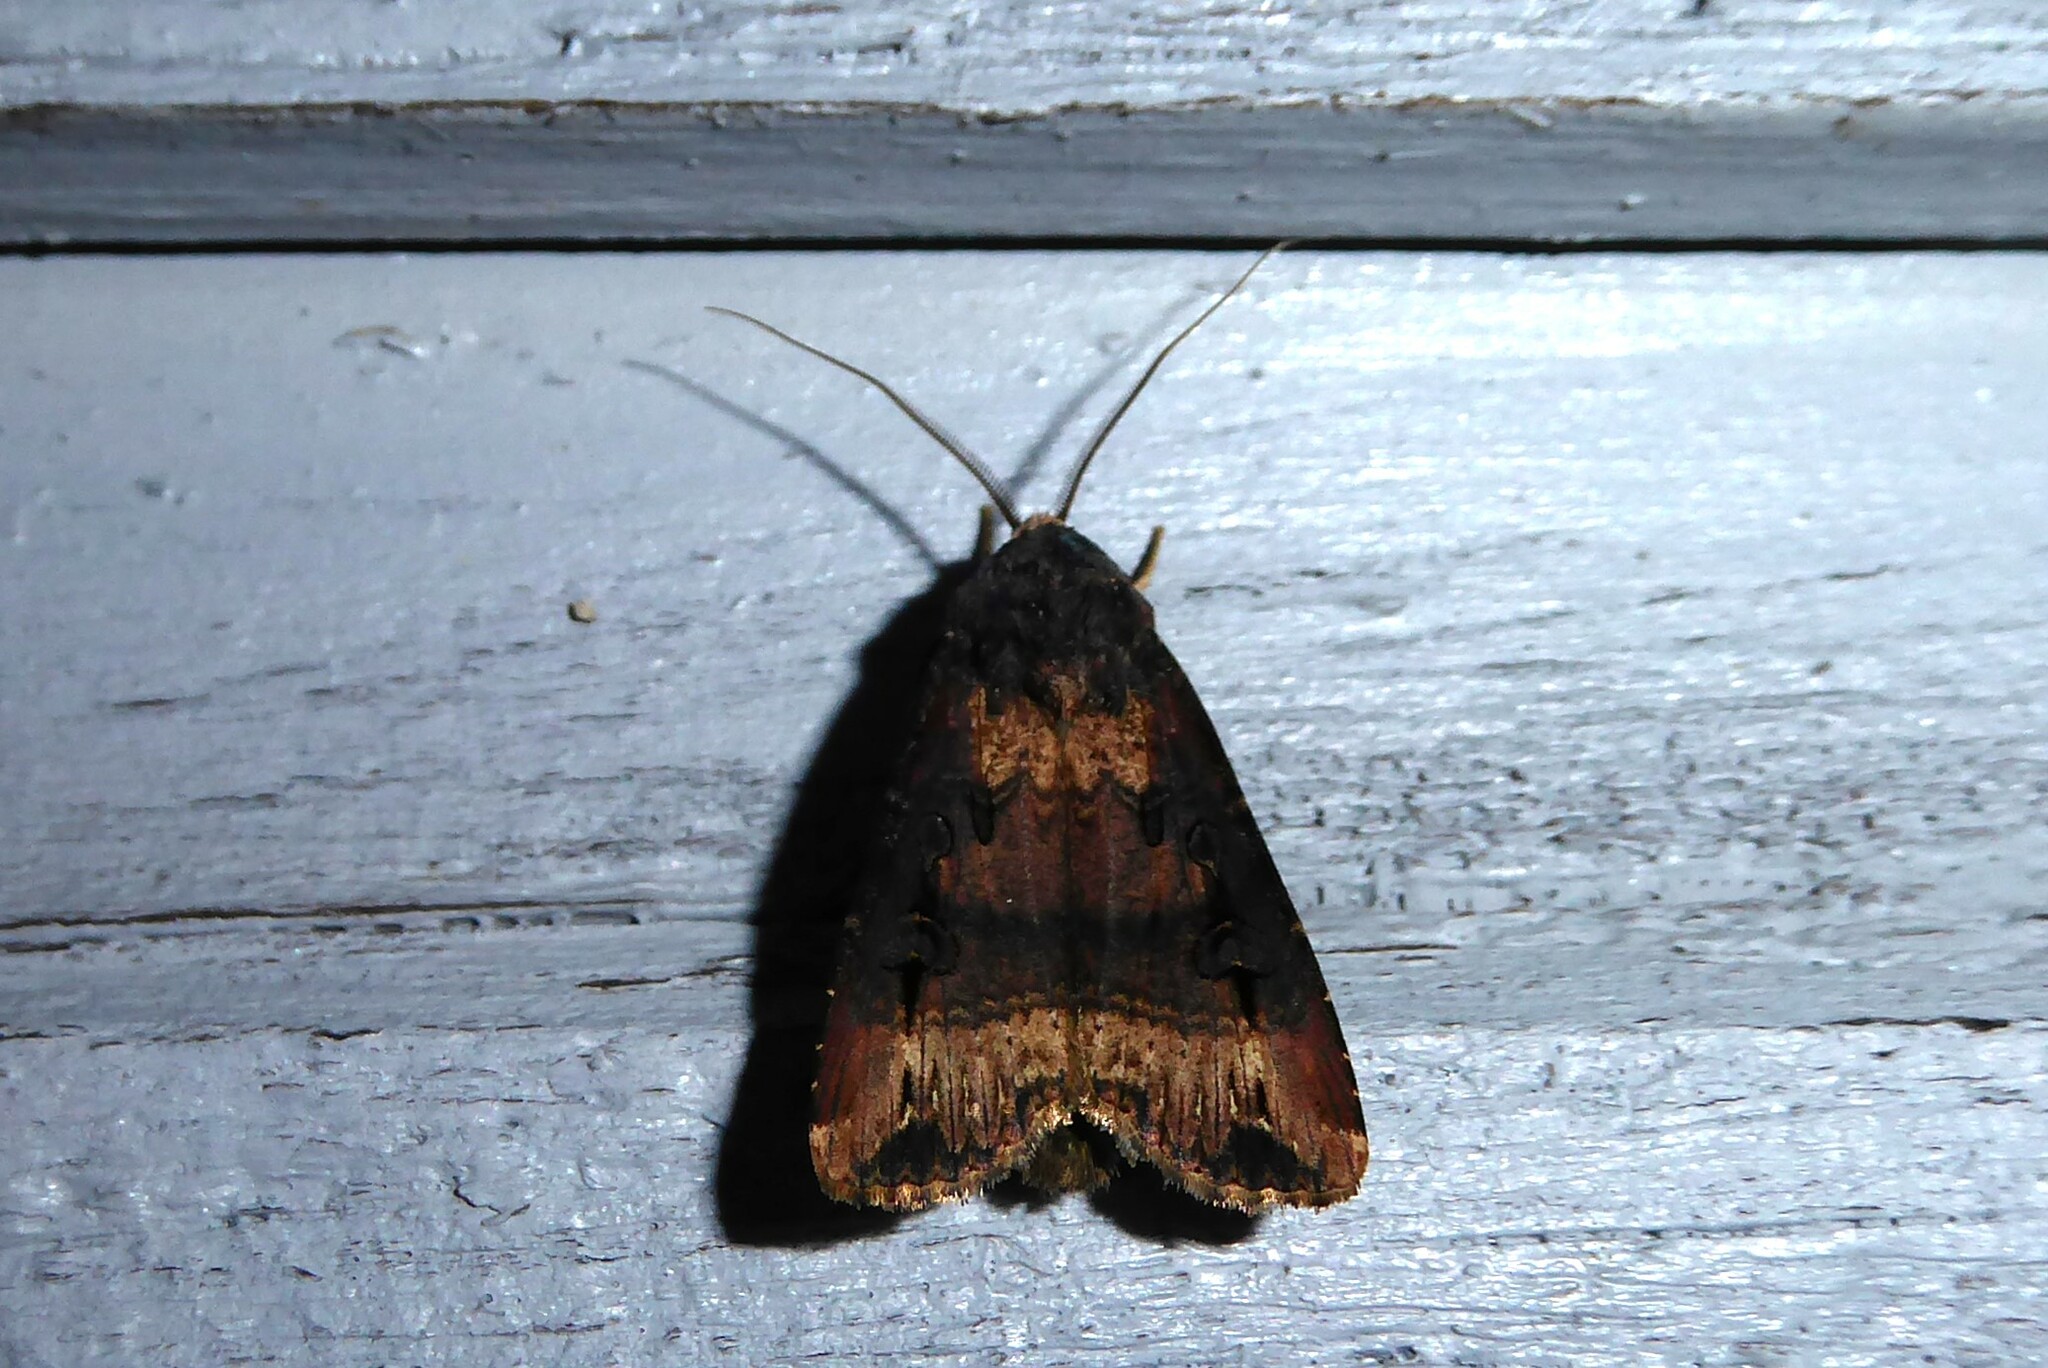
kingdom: Animalia
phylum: Arthropoda
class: Insecta
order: Lepidoptera
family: Noctuidae
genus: Agrotis
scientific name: Agrotis ipsilon
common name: Dark sword-grass
